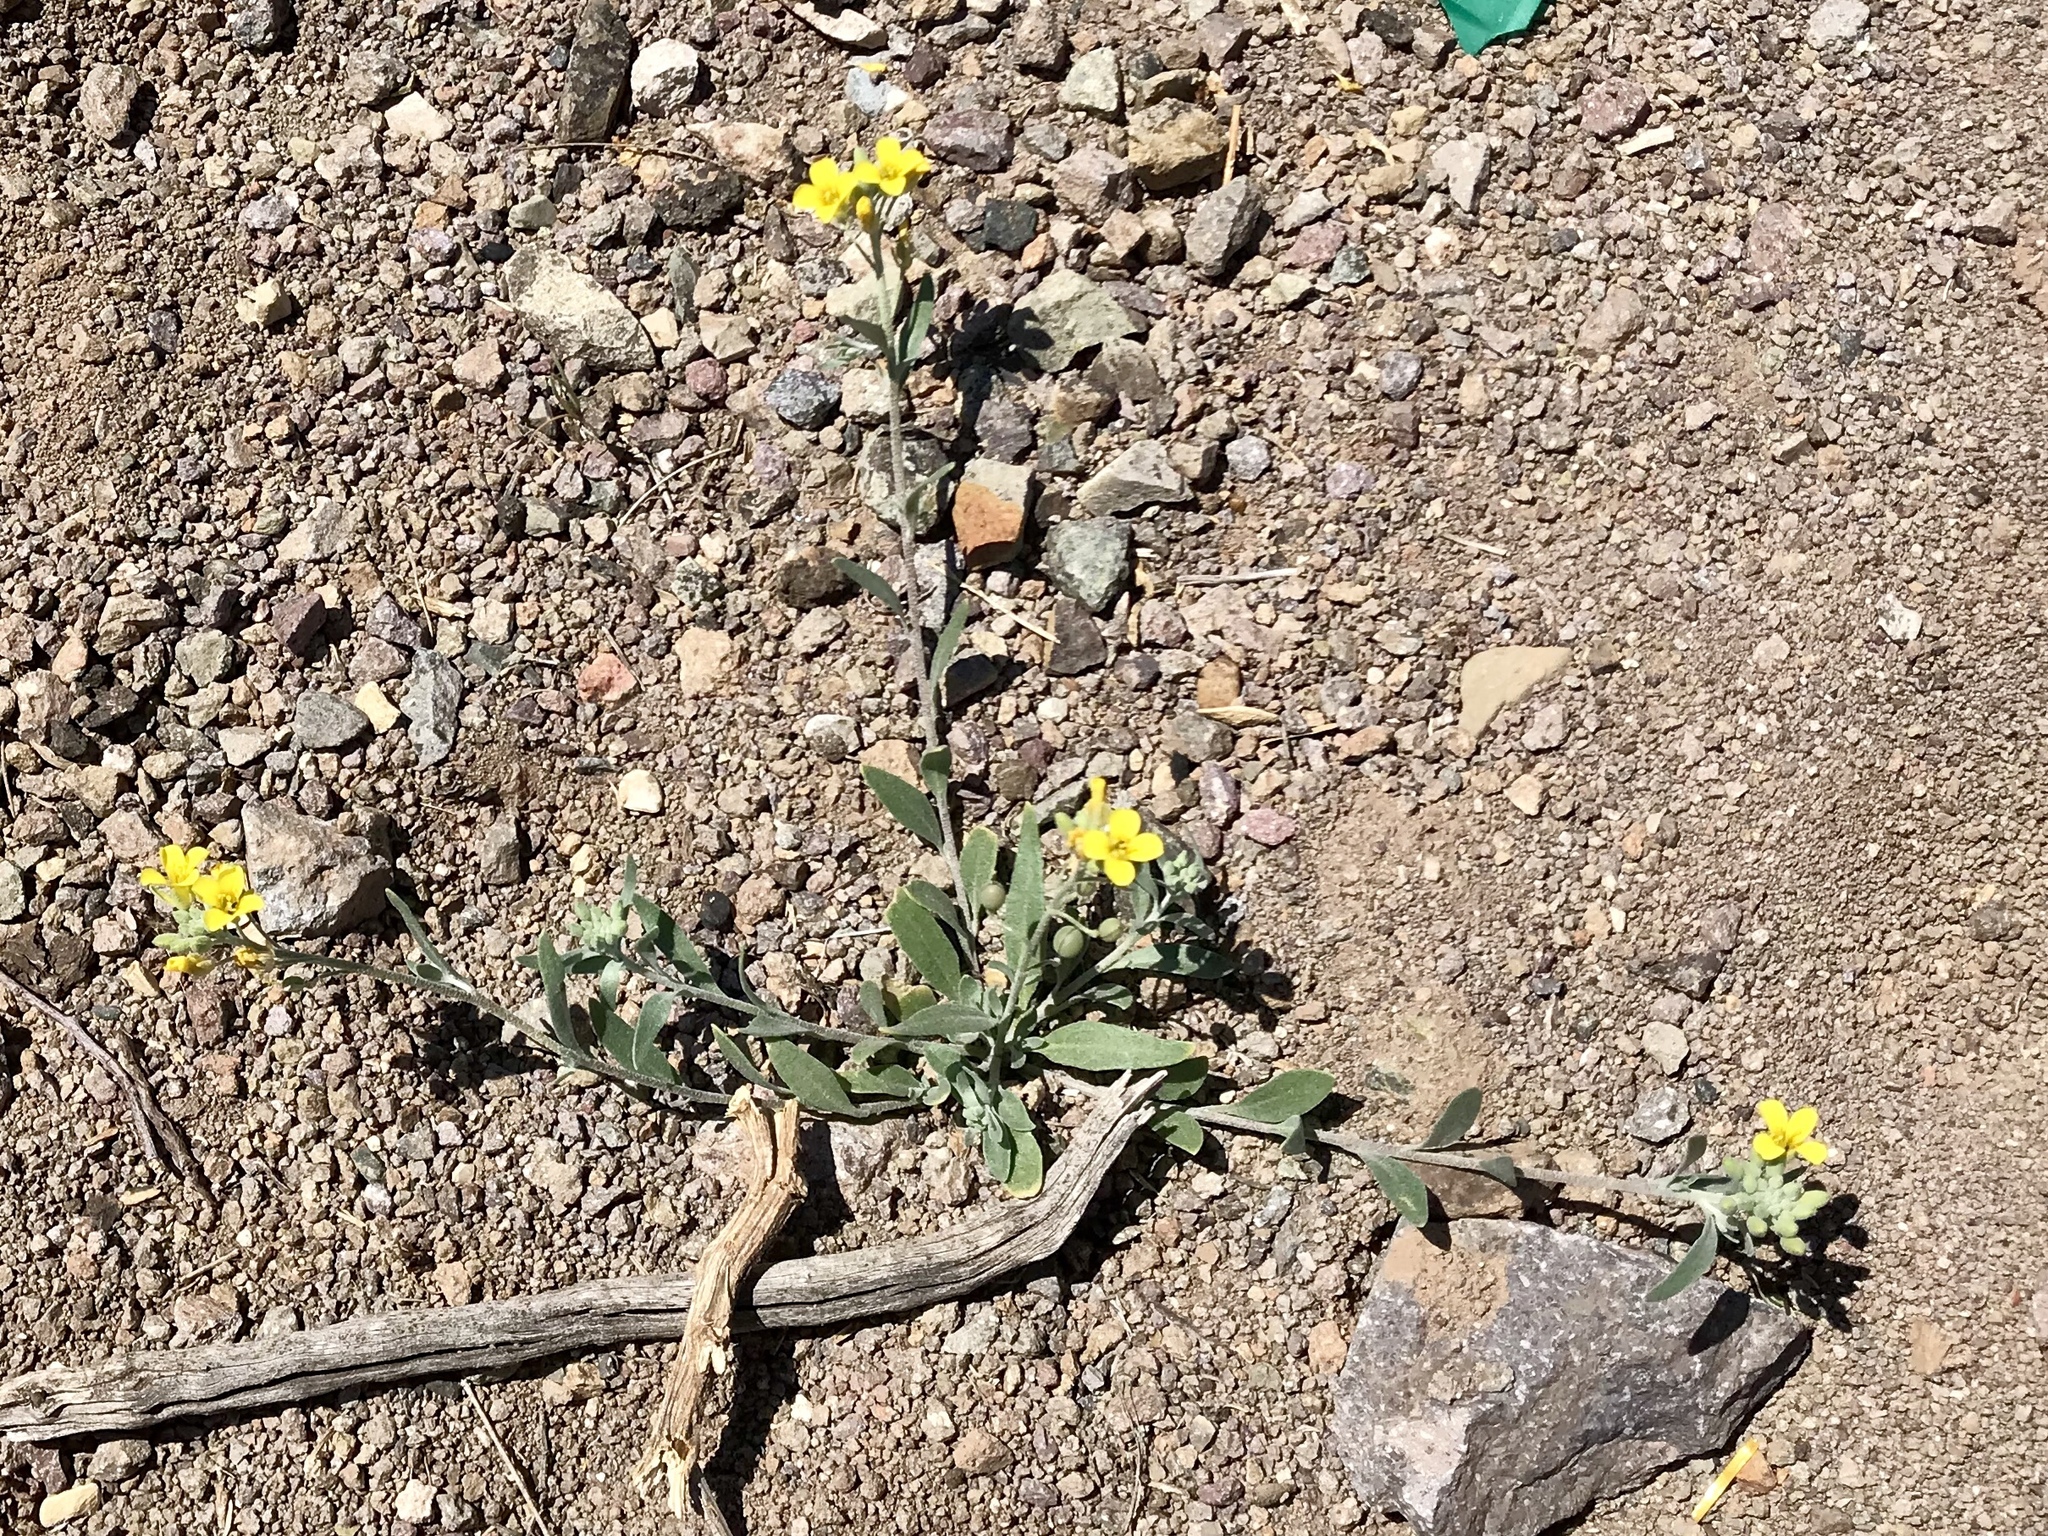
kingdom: Plantae
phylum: Tracheophyta
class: Magnoliopsida
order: Brassicales
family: Brassicaceae
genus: Physaria
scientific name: Physaria gordonii
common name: Gordon's bladderpod
